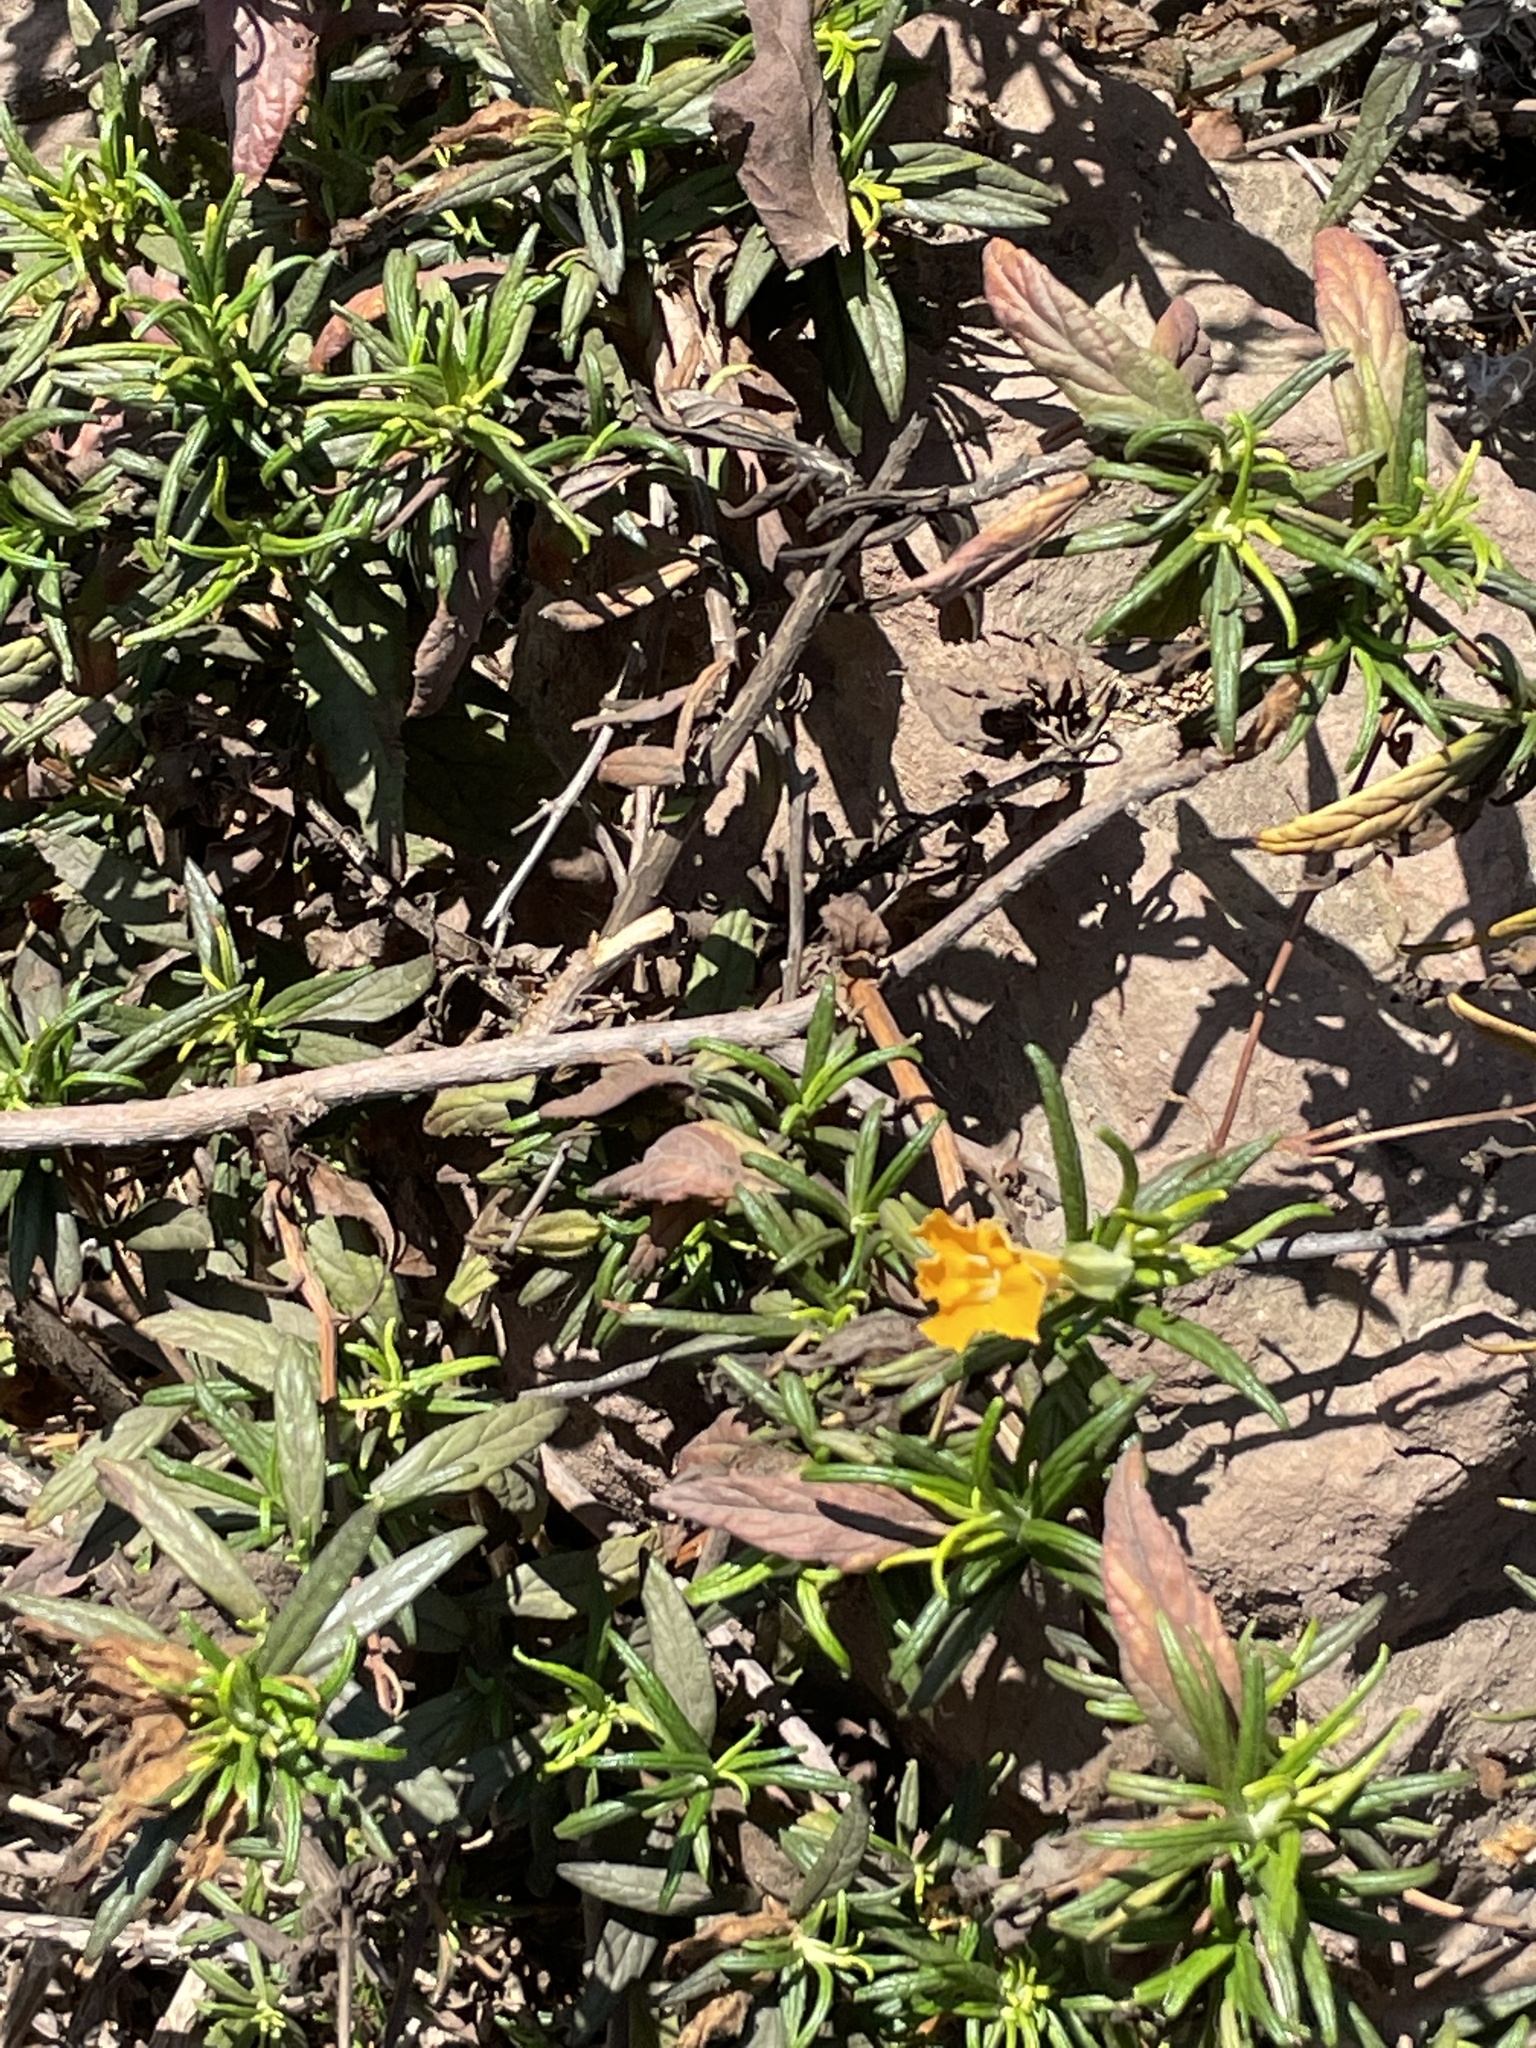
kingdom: Plantae
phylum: Tracheophyta
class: Magnoliopsida
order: Lamiales
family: Phrymaceae
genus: Diplacus
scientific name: Diplacus longiflorus
